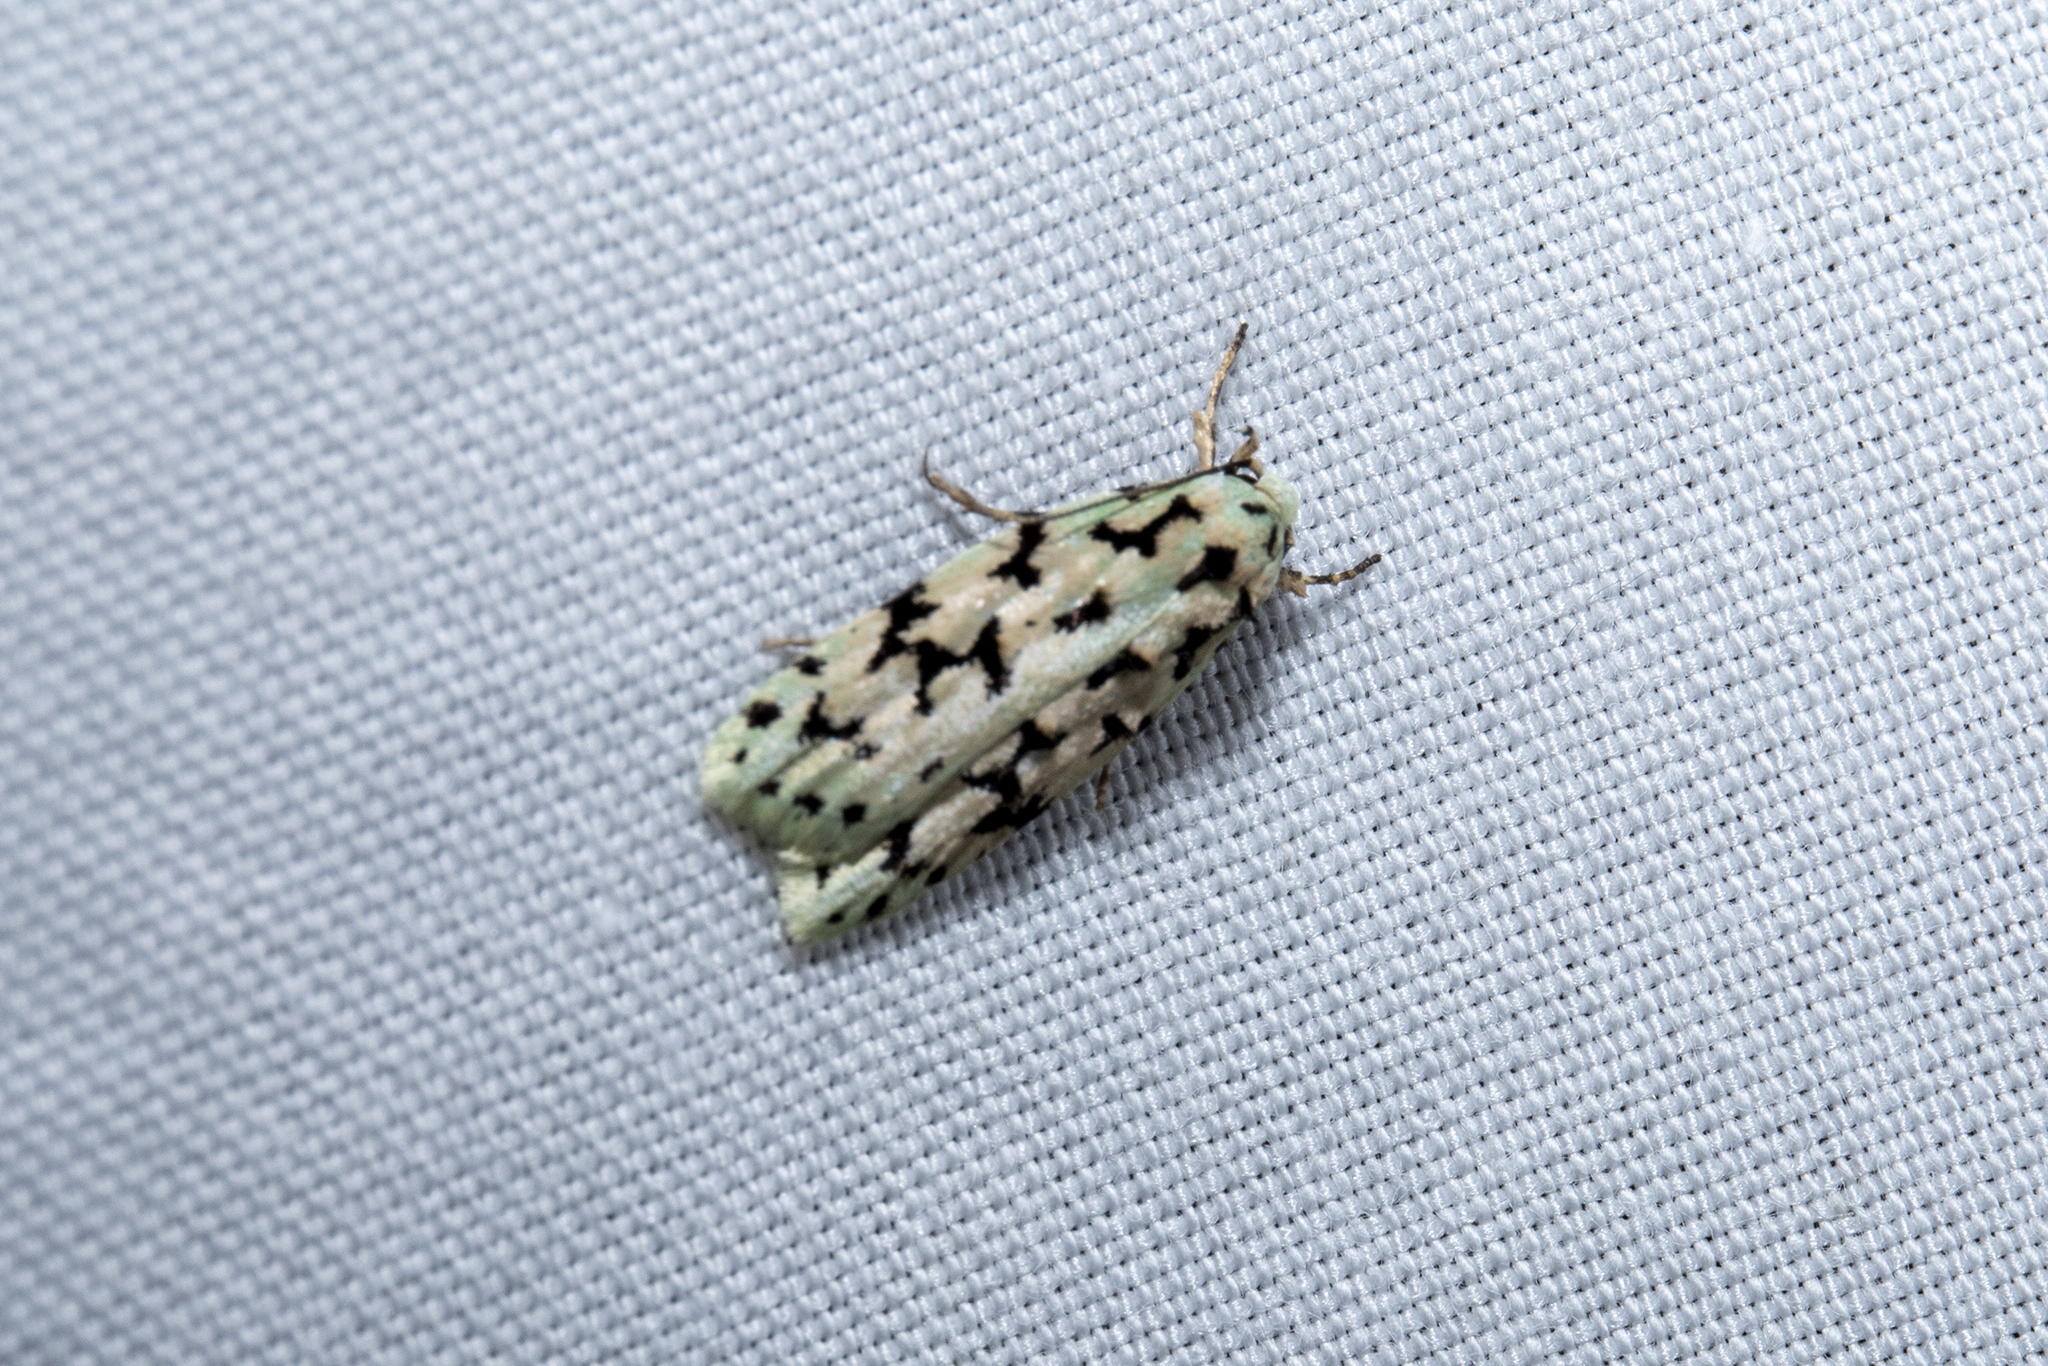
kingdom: Animalia
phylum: Arthropoda
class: Insecta
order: Lepidoptera
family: Oecophoridae
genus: Izatha
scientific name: Izatha huttoni
